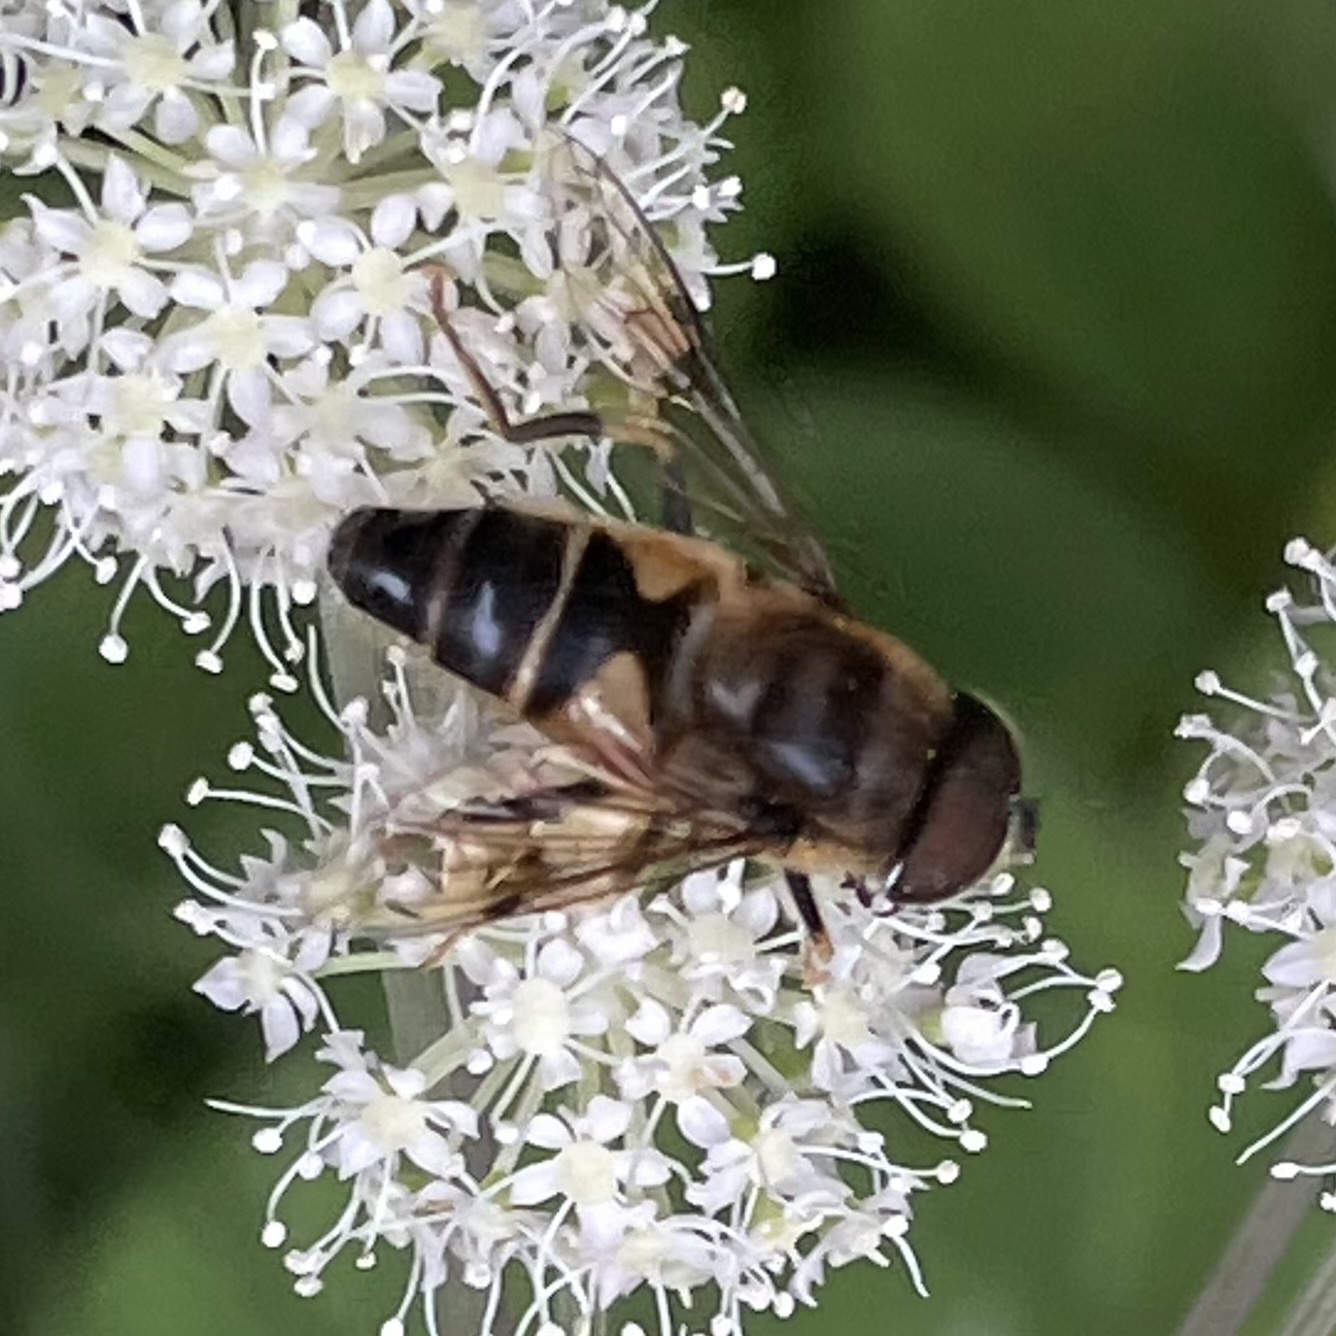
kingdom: Animalia
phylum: Arthropoda
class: Insecta
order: Diptera
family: Syrphidae
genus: Eristalis
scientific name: Eristalis pertinax
